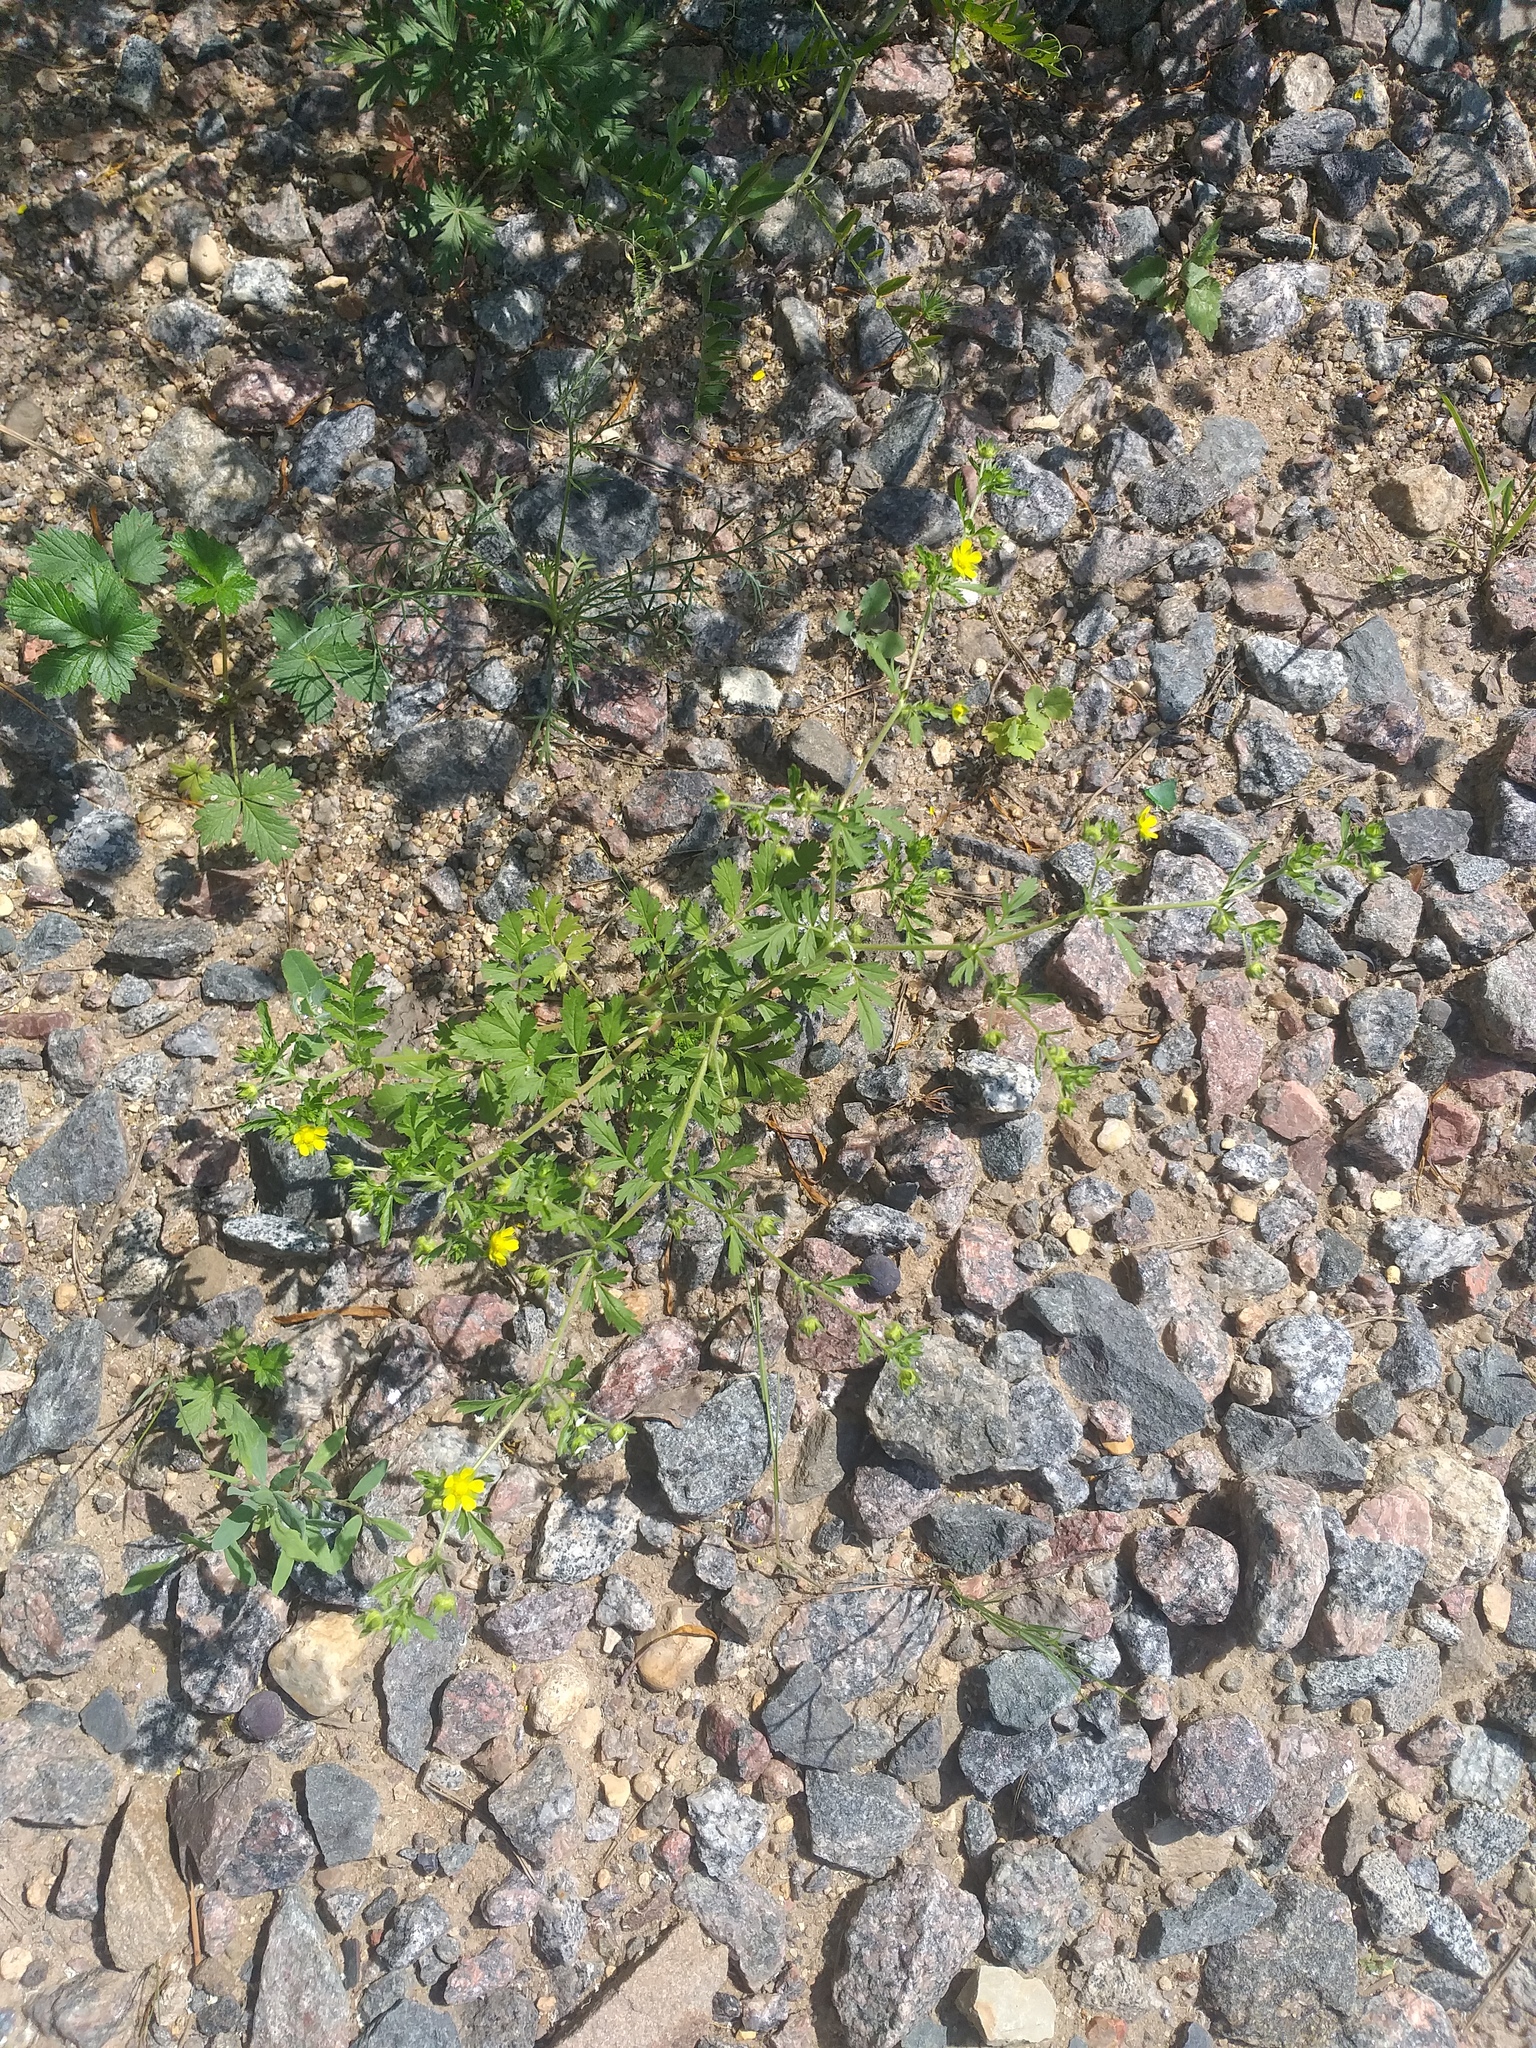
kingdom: Plantae
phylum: Tracheophyta
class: Magnoliopsida
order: Rosales
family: Rosaceae
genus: Potentilla
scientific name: Potentilla supina
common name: Prostrate cinquefoil
